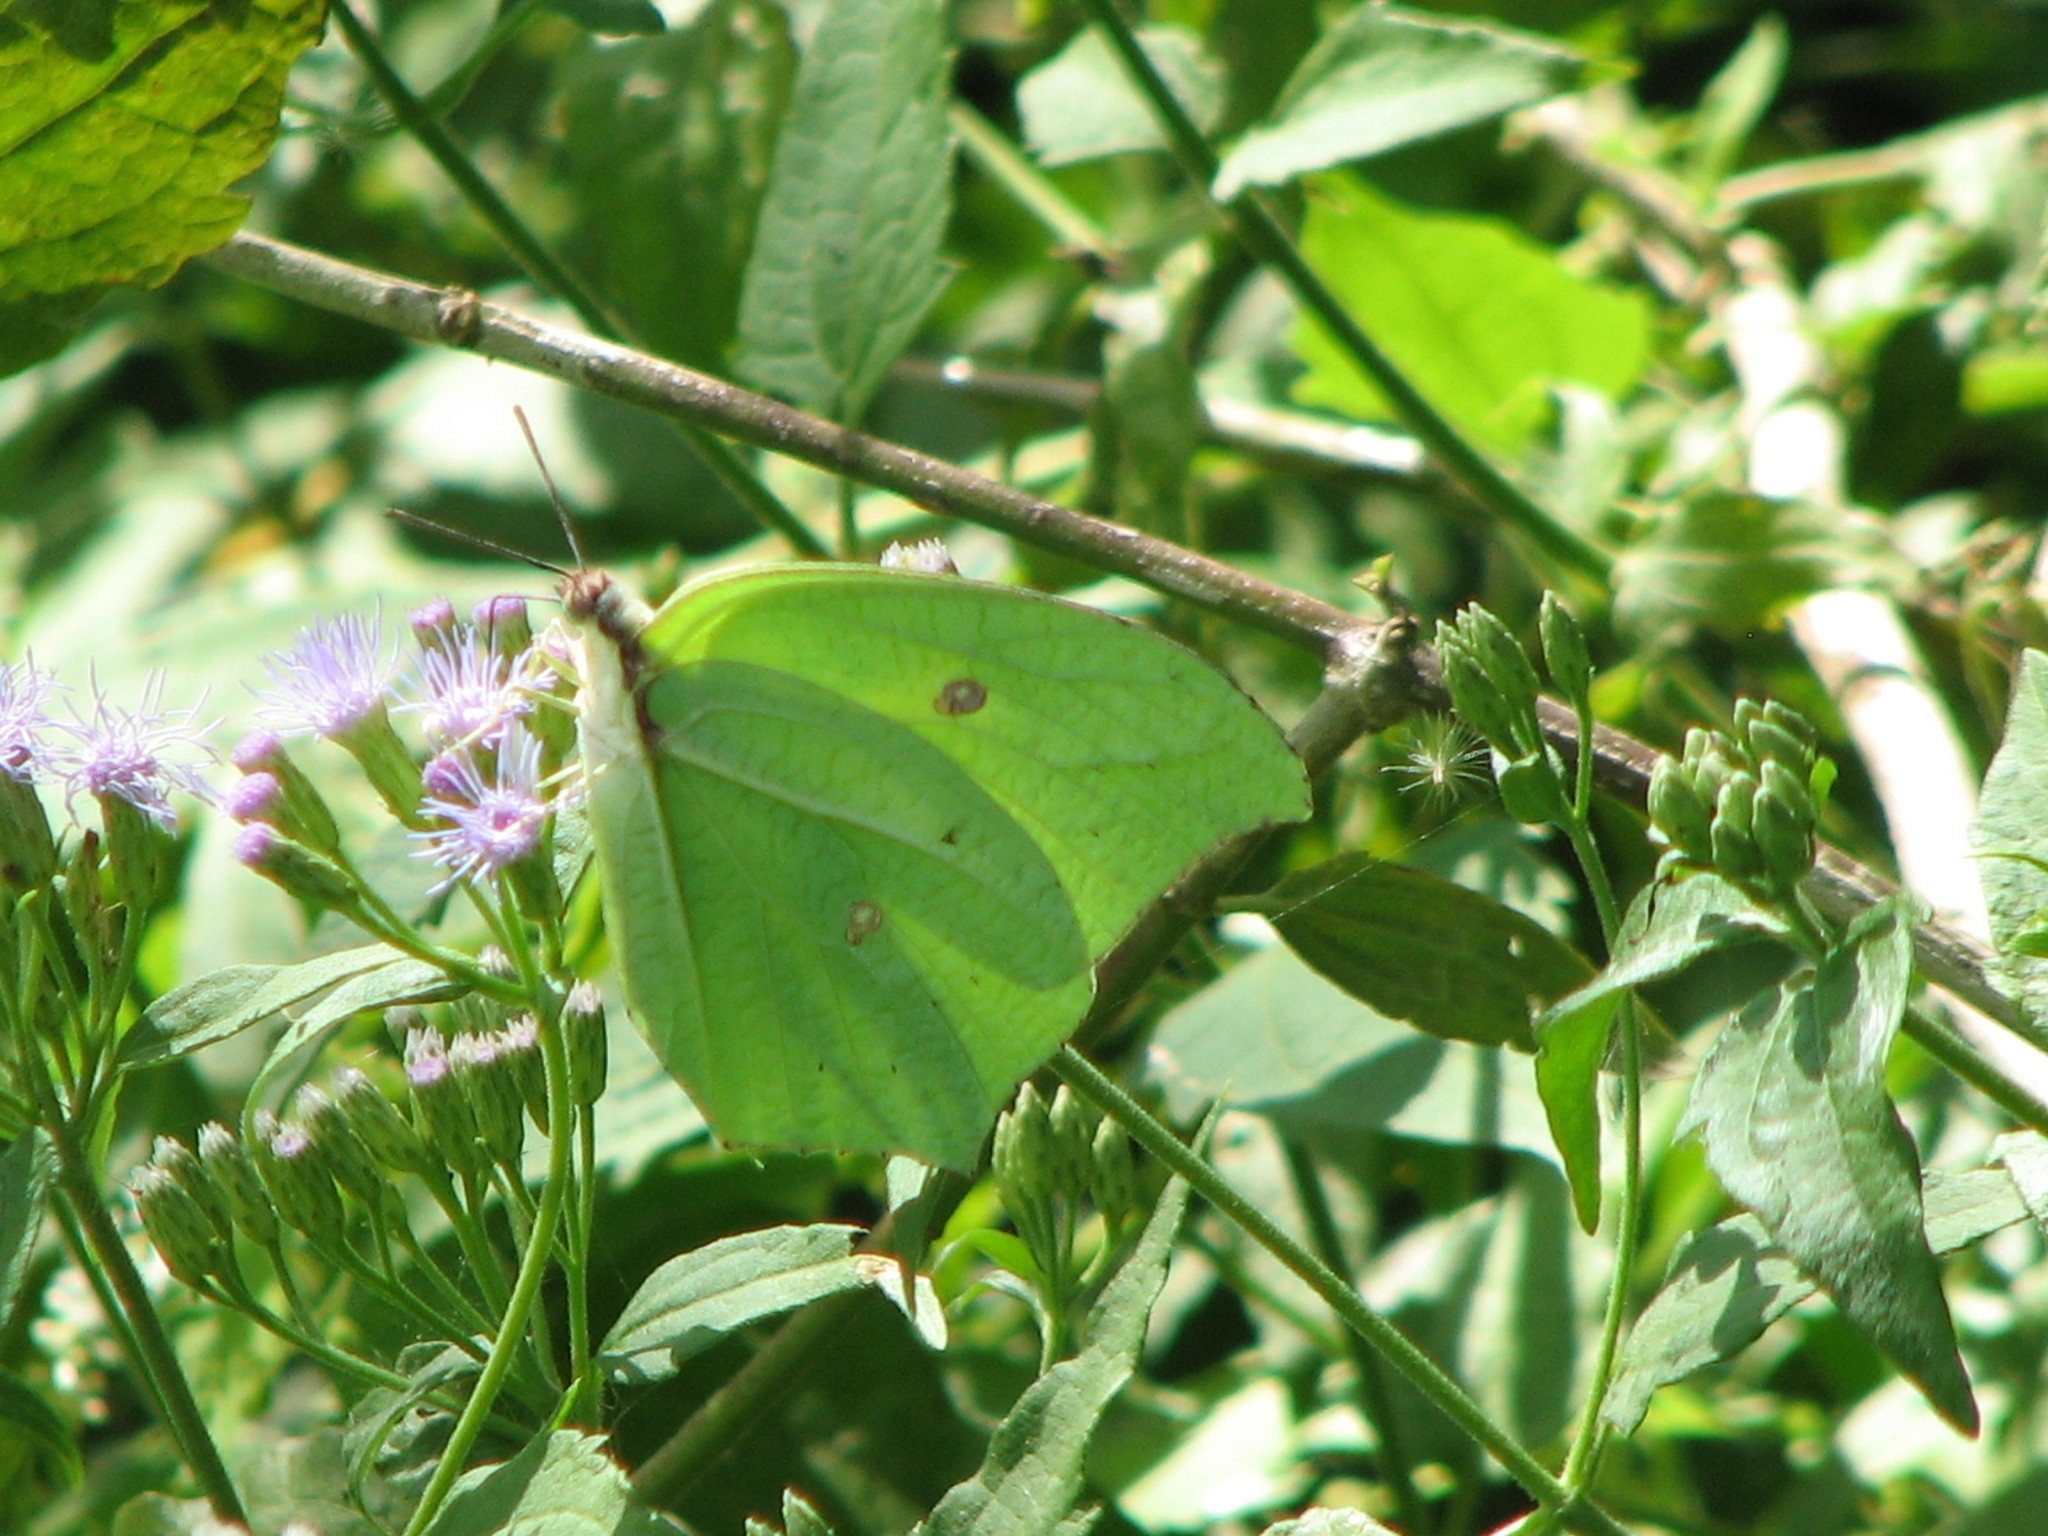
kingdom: Animalia
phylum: Arthropoda
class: Insecta
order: Lepidoptera
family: Pieridae
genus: Anteos
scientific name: Anteos maerula
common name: Angled sulphur
